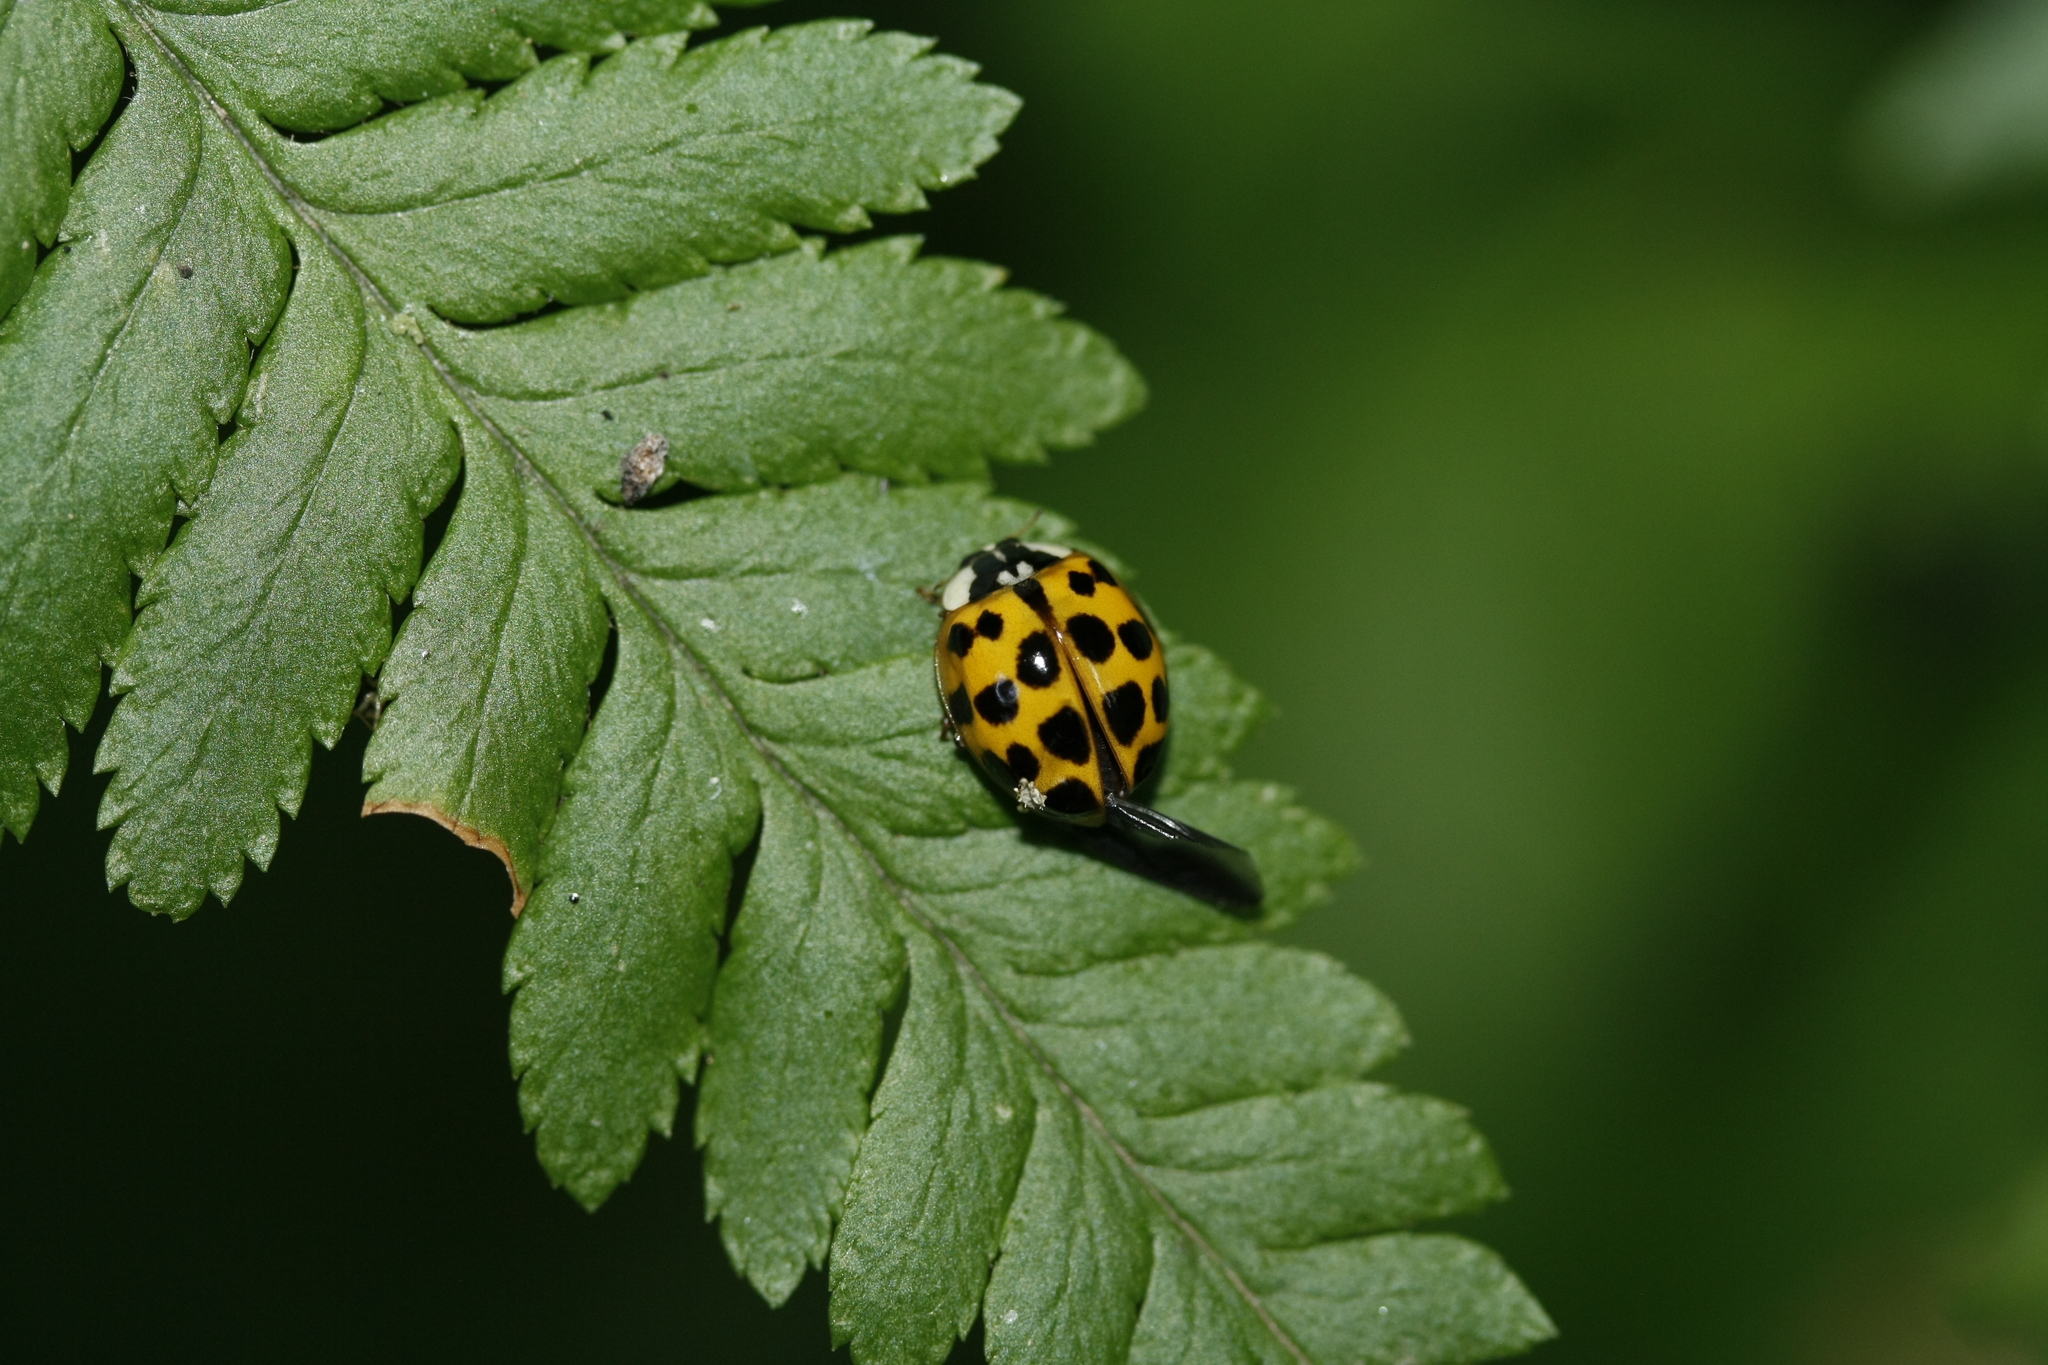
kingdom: Animalia
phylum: Arthropoda
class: Insecta
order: Coleoptera
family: Coccinellidae
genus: Harmonia
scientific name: Harmonia axyridis
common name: Harlequin ladybird
